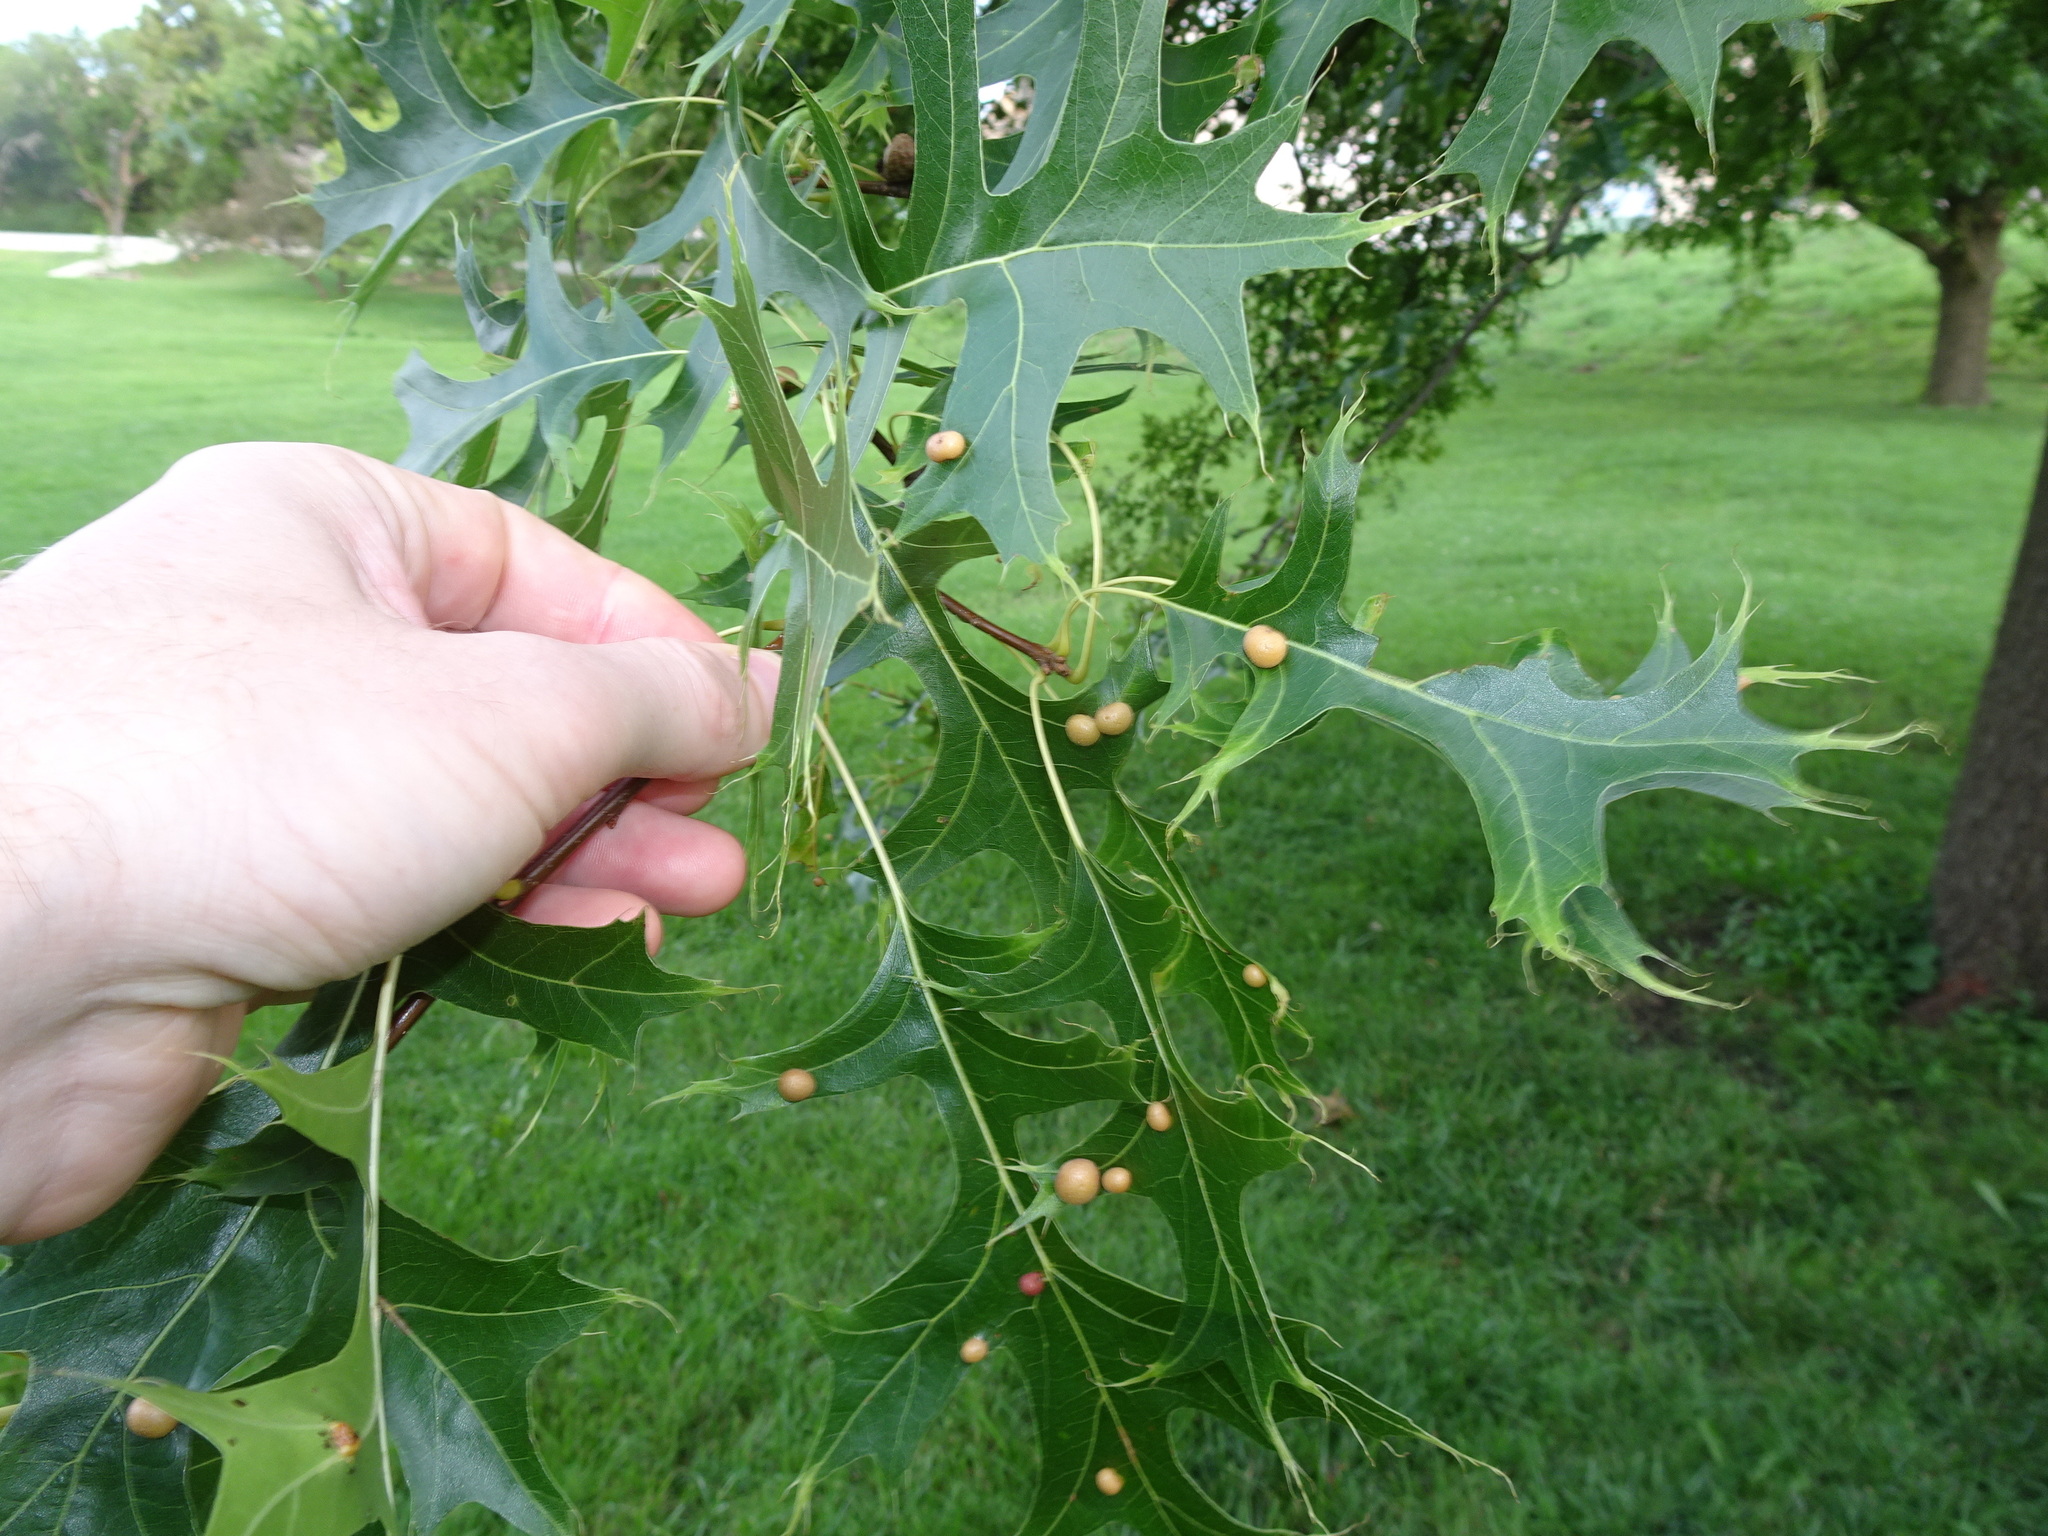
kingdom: Animalia
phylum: Arthropoda
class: Insecta
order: Diptera
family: Cecidomyiidae
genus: Polystepha
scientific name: Polystepha pilulae
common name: Oak leaf gall midge
